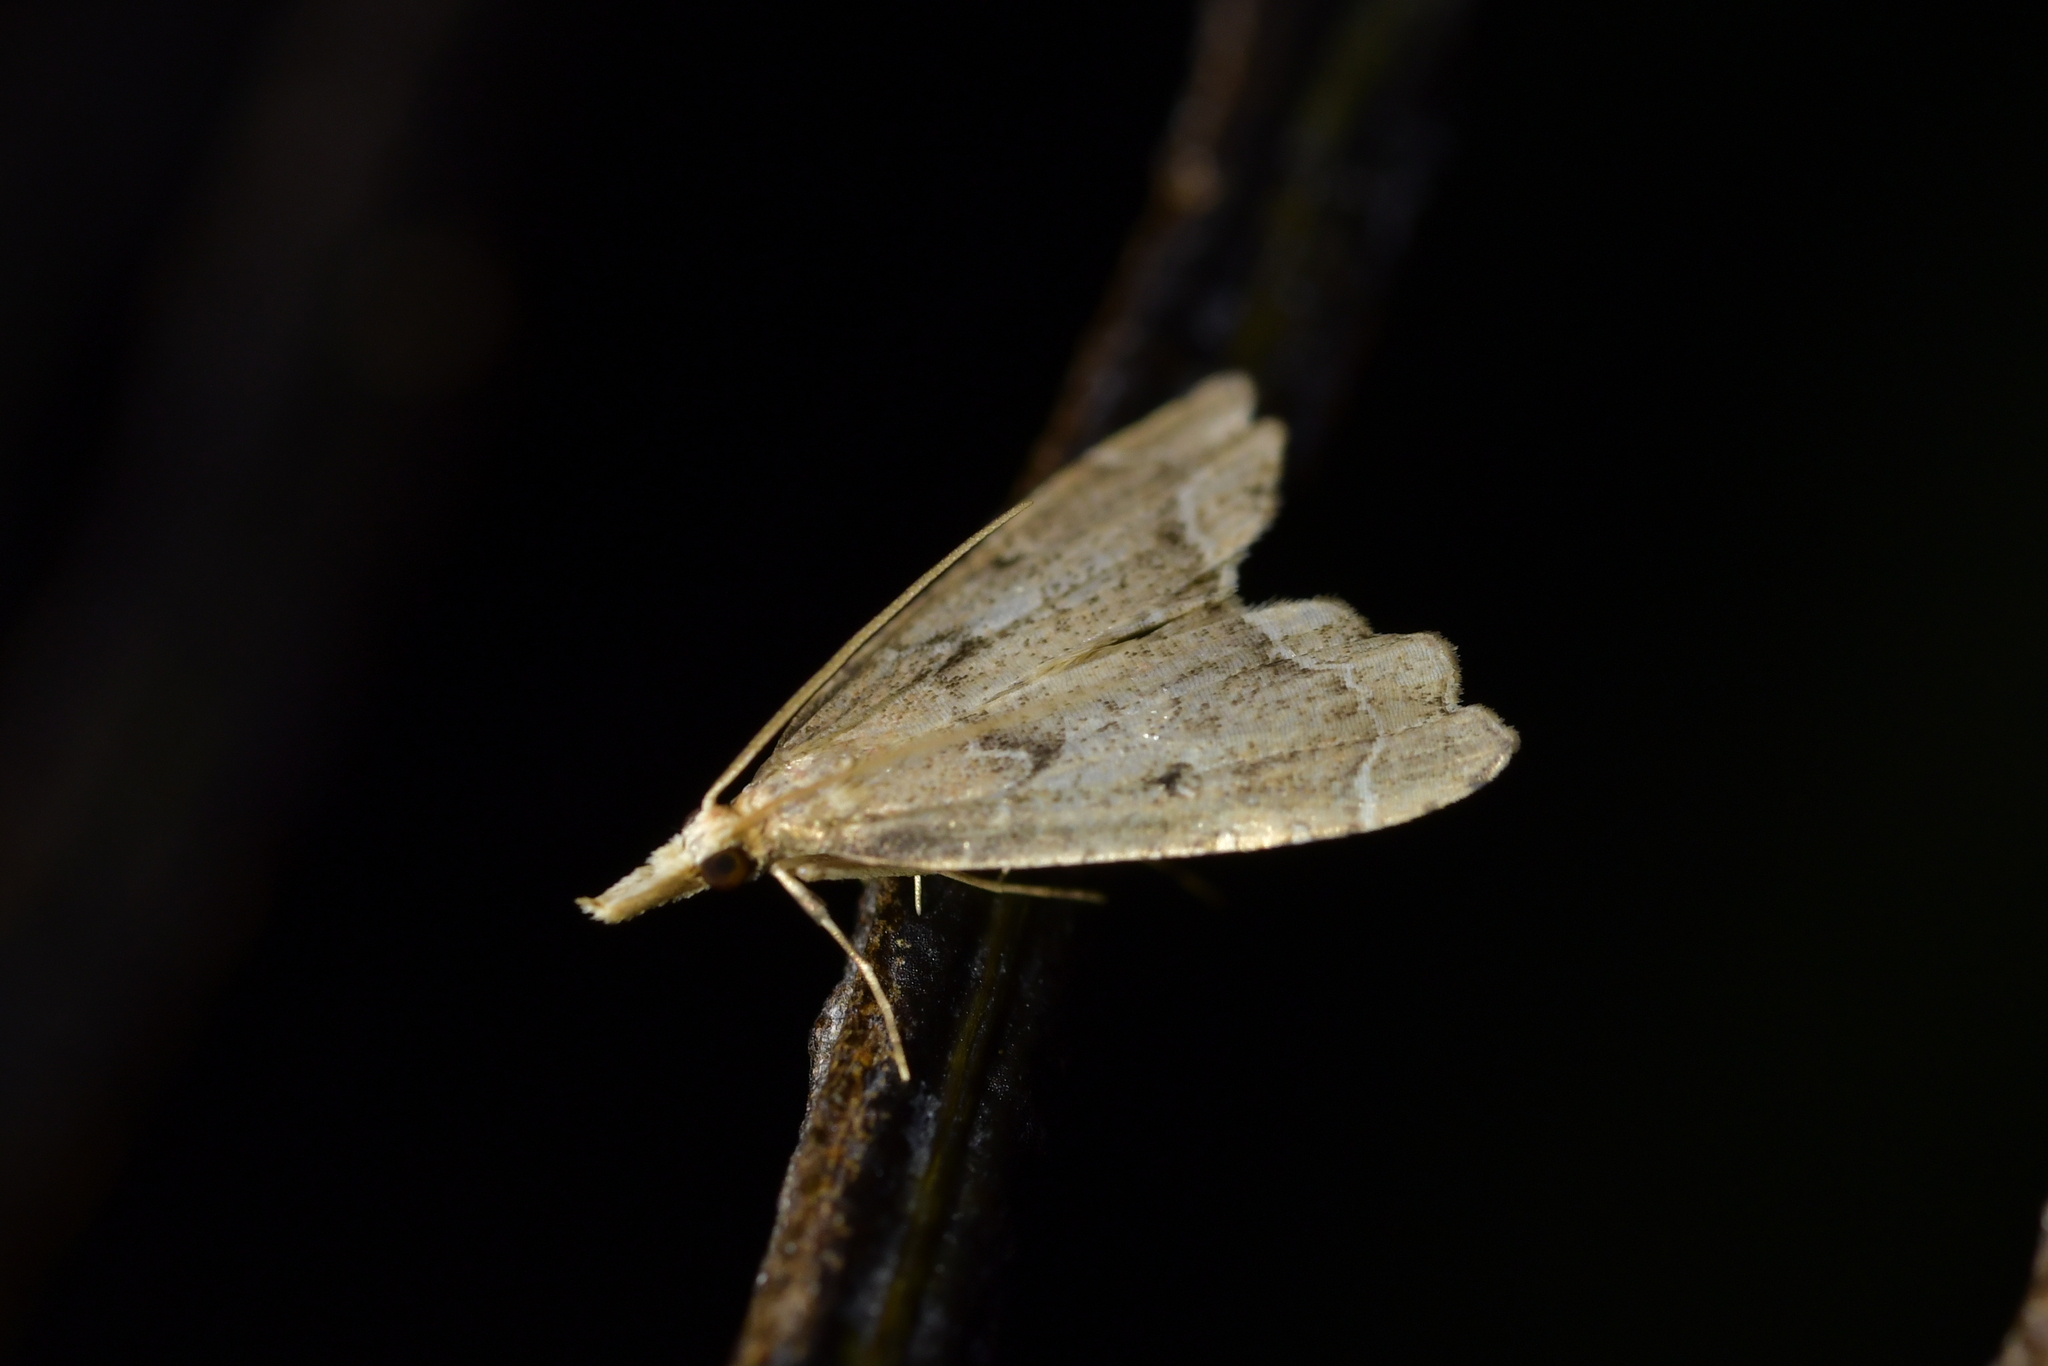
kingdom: Animalia
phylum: Arthropoda
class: Insecta
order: Lepidoptera
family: Crambidae
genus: Diplopseustis
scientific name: Diplopseustis perieresalis
